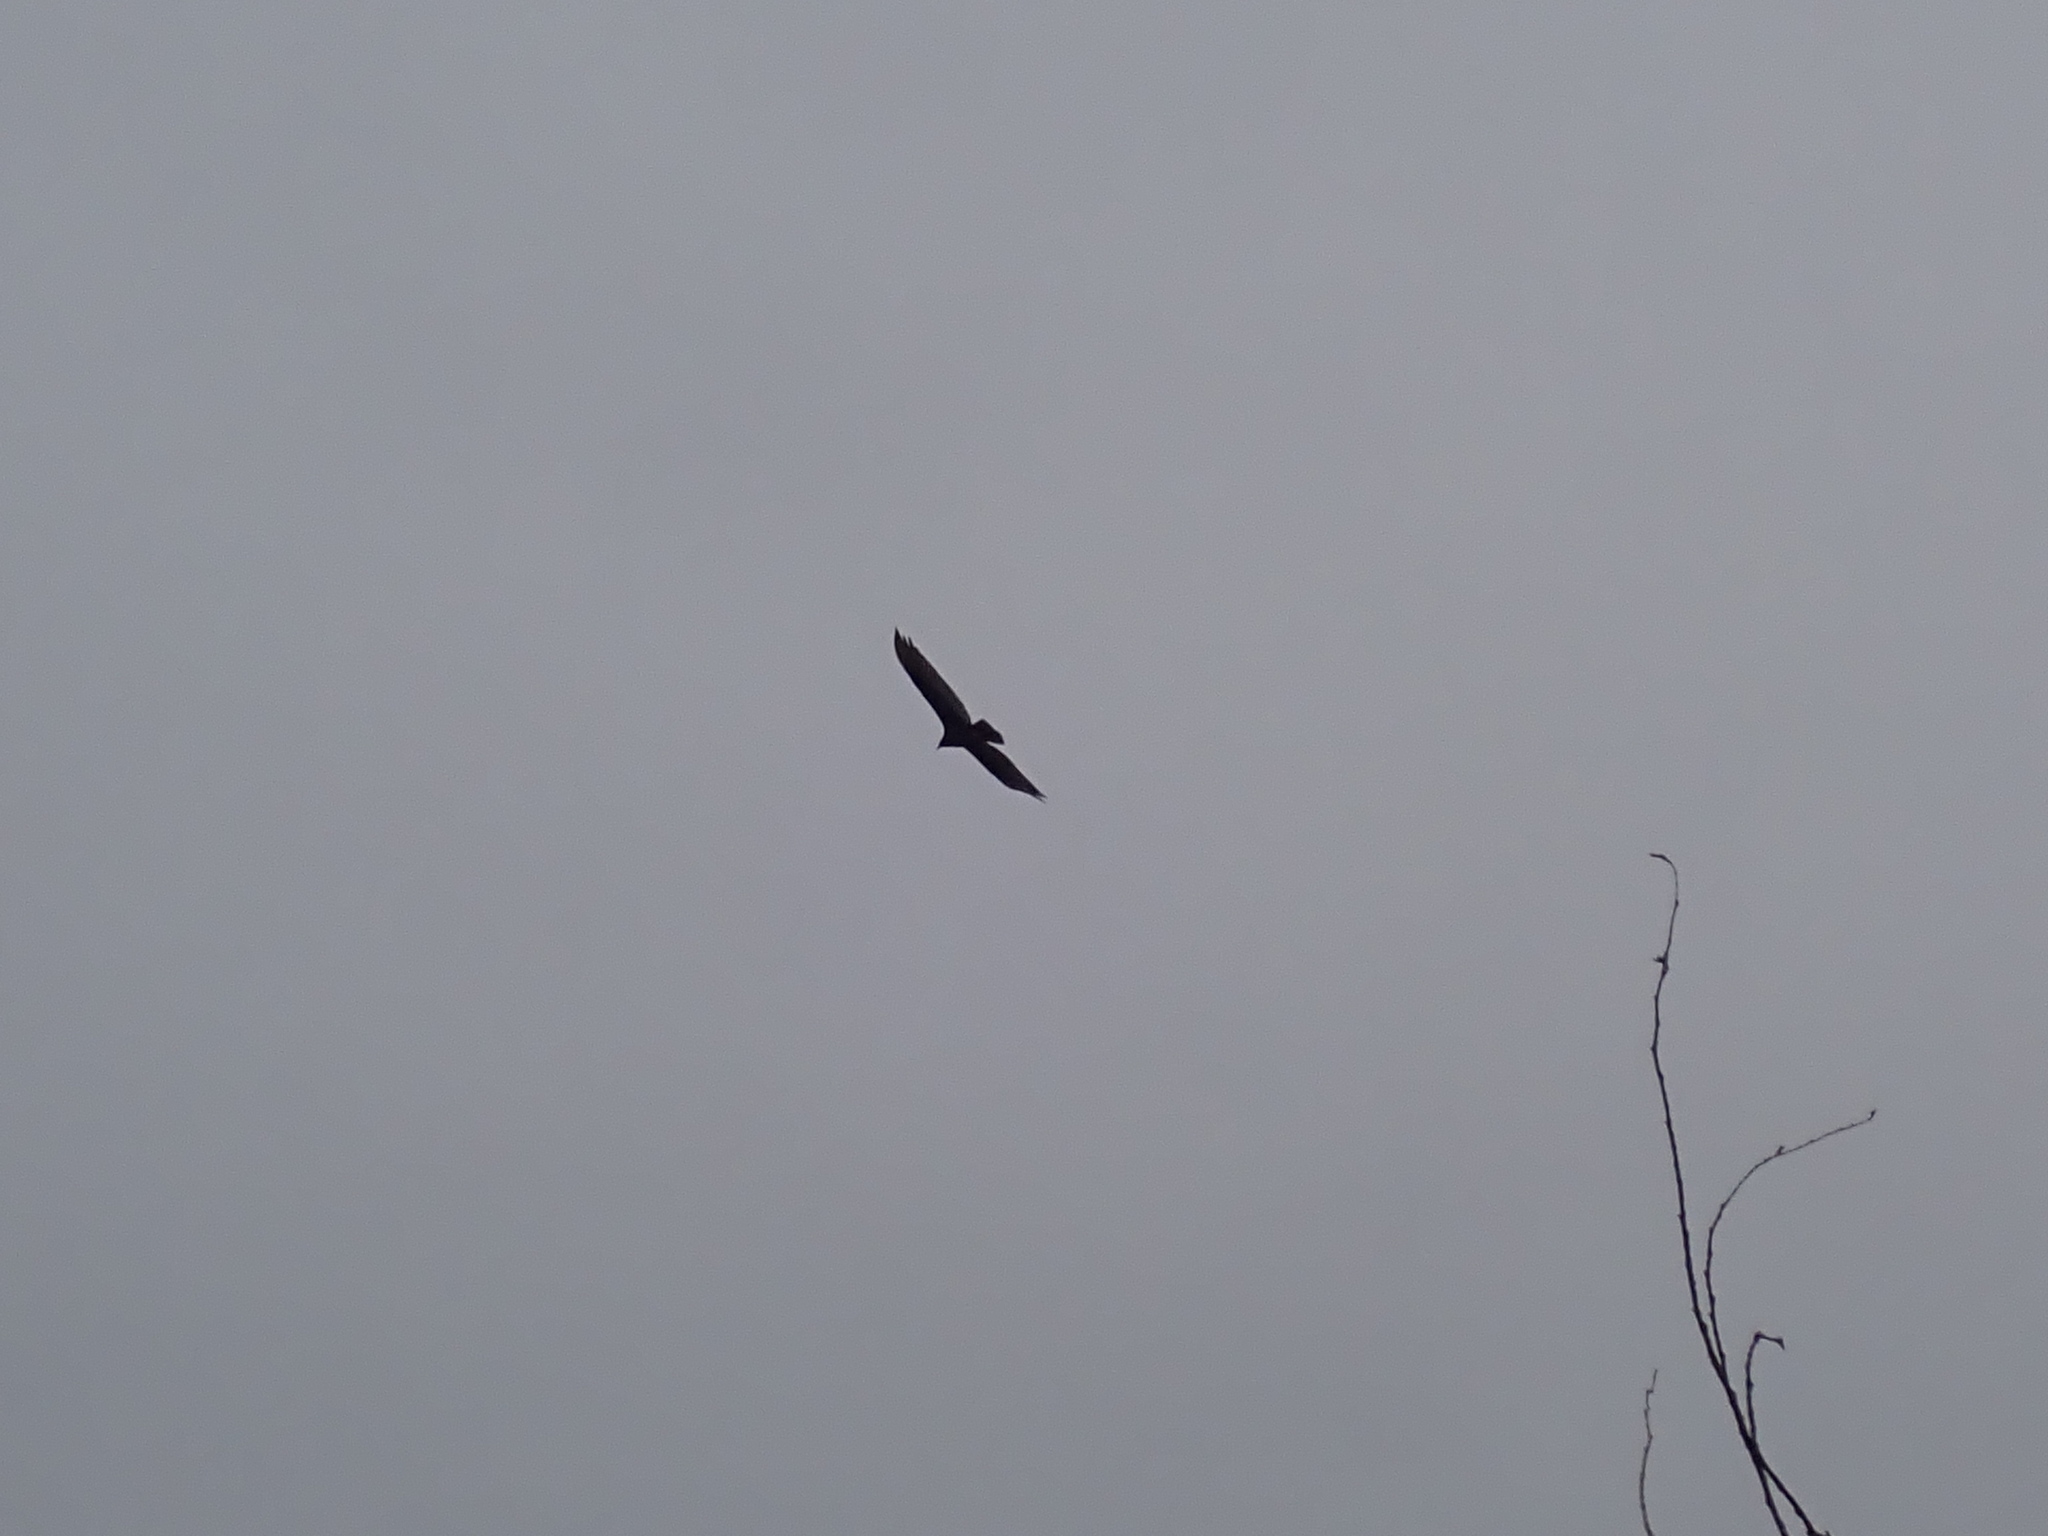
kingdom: Animalia
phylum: Chordata
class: Aves
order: Accipitriformes
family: Cathartidae
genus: Cathartes
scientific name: Cathartes aura
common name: Turkey vulture
